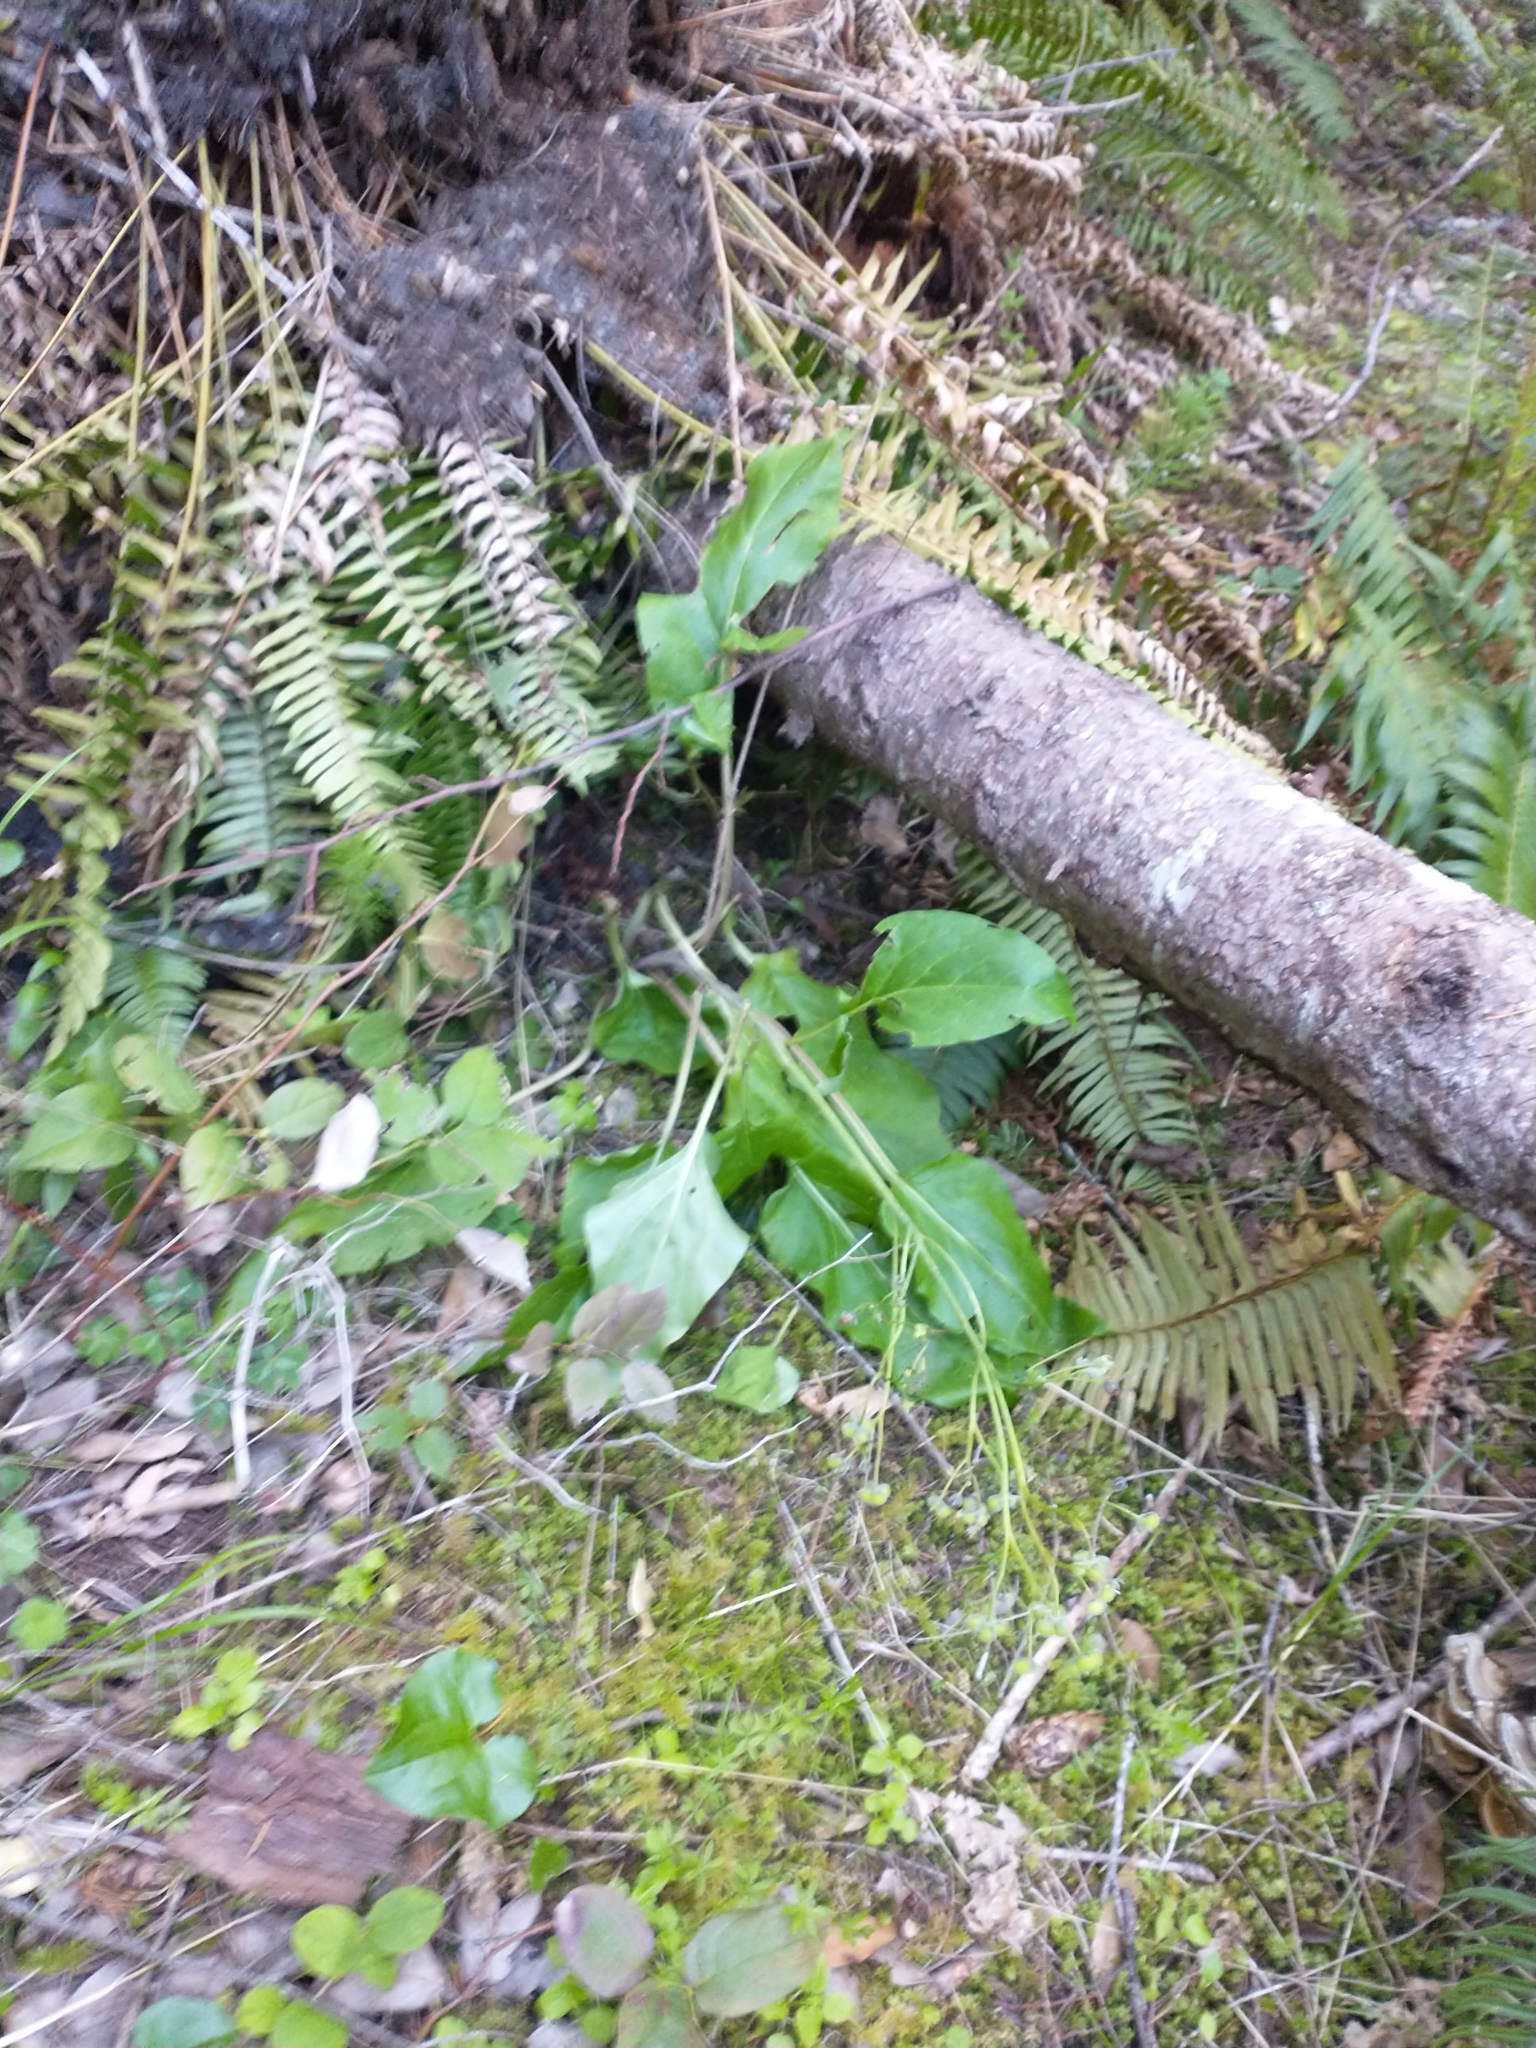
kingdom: Plantae
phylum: Tracheophyta
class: Magnoliopsida
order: Boraginales
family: Boraginaceae
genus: Adelinia
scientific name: Adelinia grande
